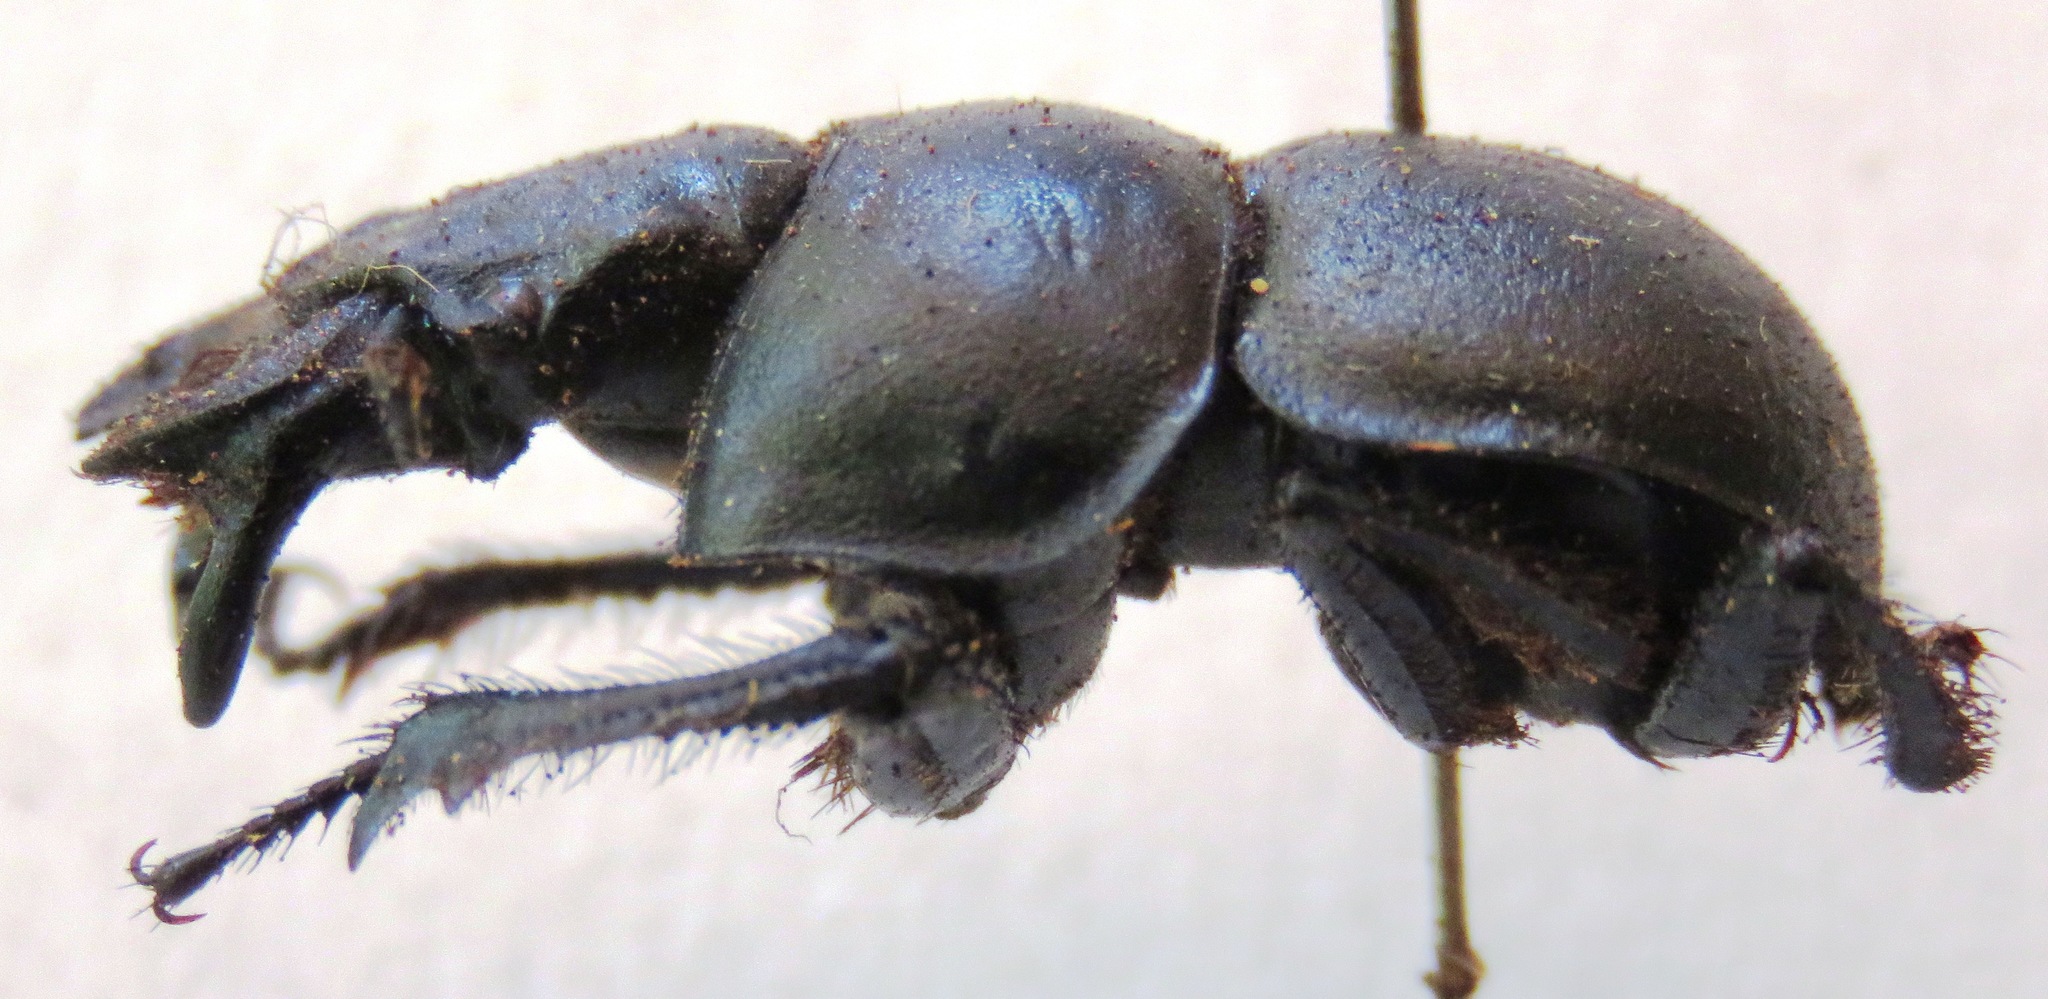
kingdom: Animalia
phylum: Arthropoda
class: Insecta
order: Coleoptera
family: Geotrupidae
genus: Lethrus
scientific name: Lethrus apterus
